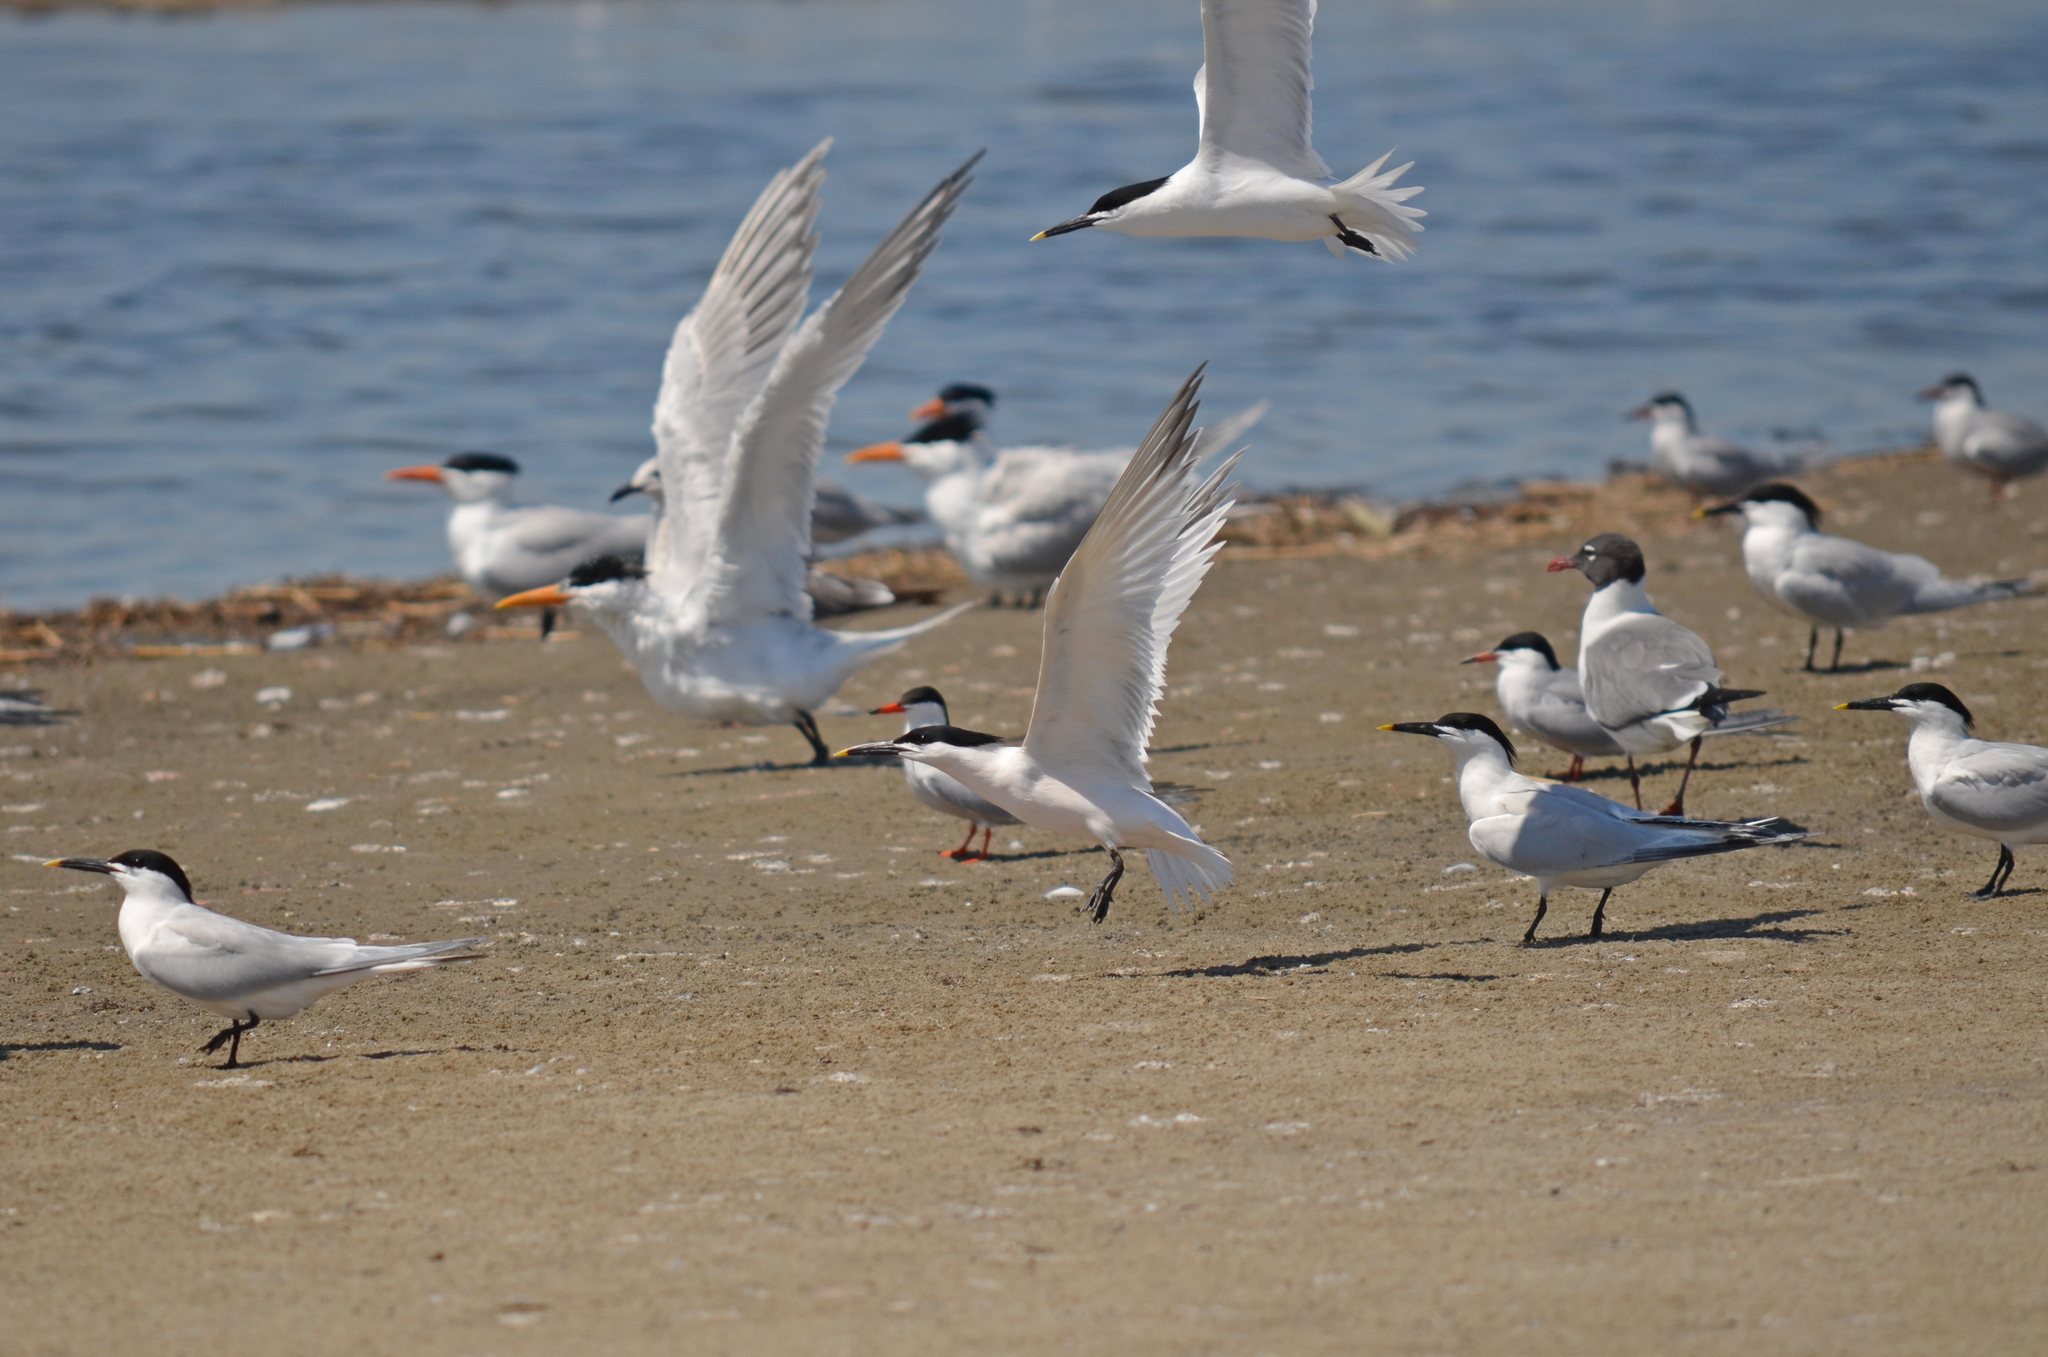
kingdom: Animalia
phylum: Chordata
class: Aves
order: Charadriiformes
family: Laridae
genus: Thalasseus
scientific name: Thalasseus sandvicensis
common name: Sandwich tern
